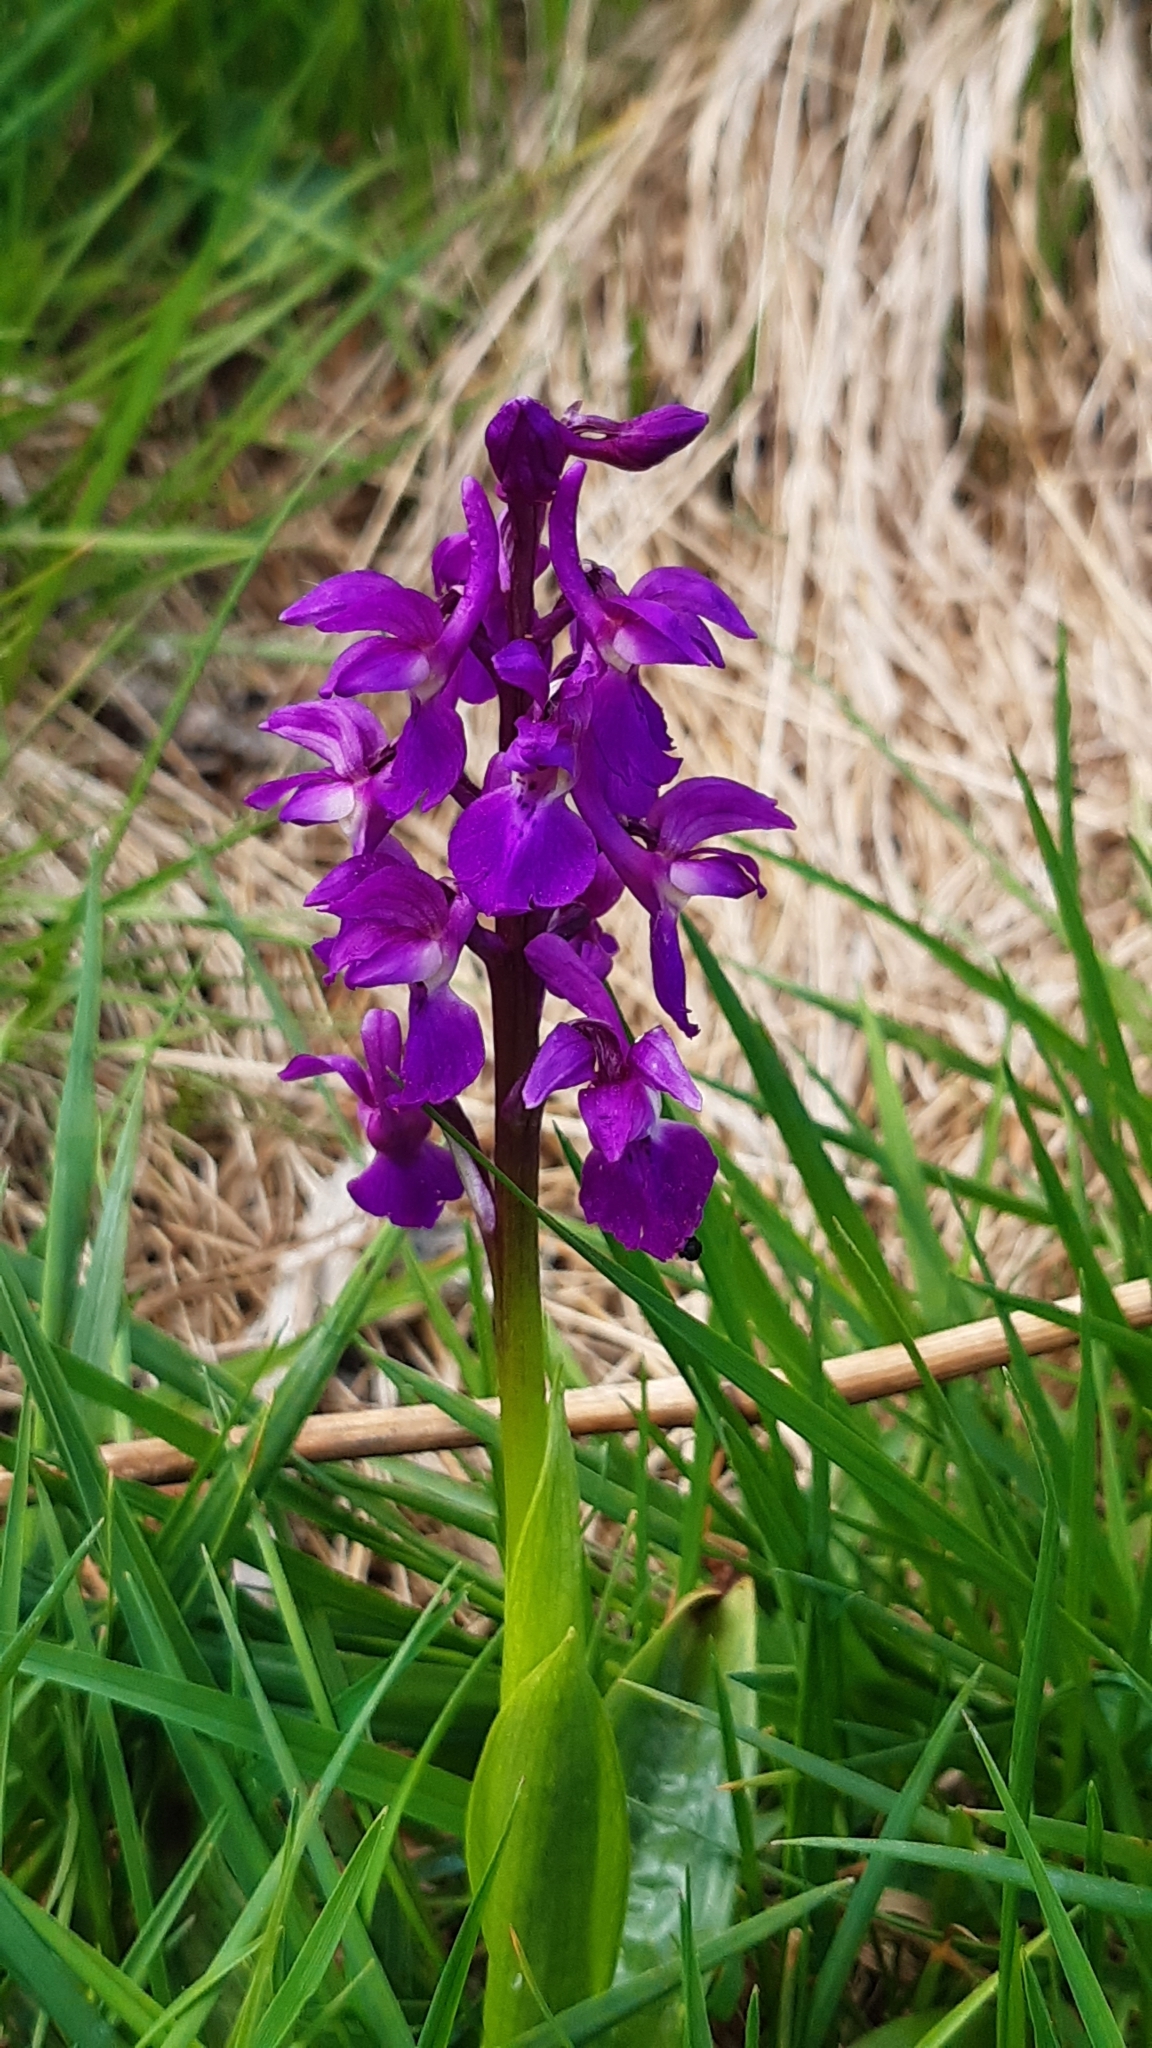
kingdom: Plantae
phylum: Tracheophyta
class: Liliopsida
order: Asparagales
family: Orchidaceae
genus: Orchis
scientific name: Orchis mascula
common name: Early-purple orchid
